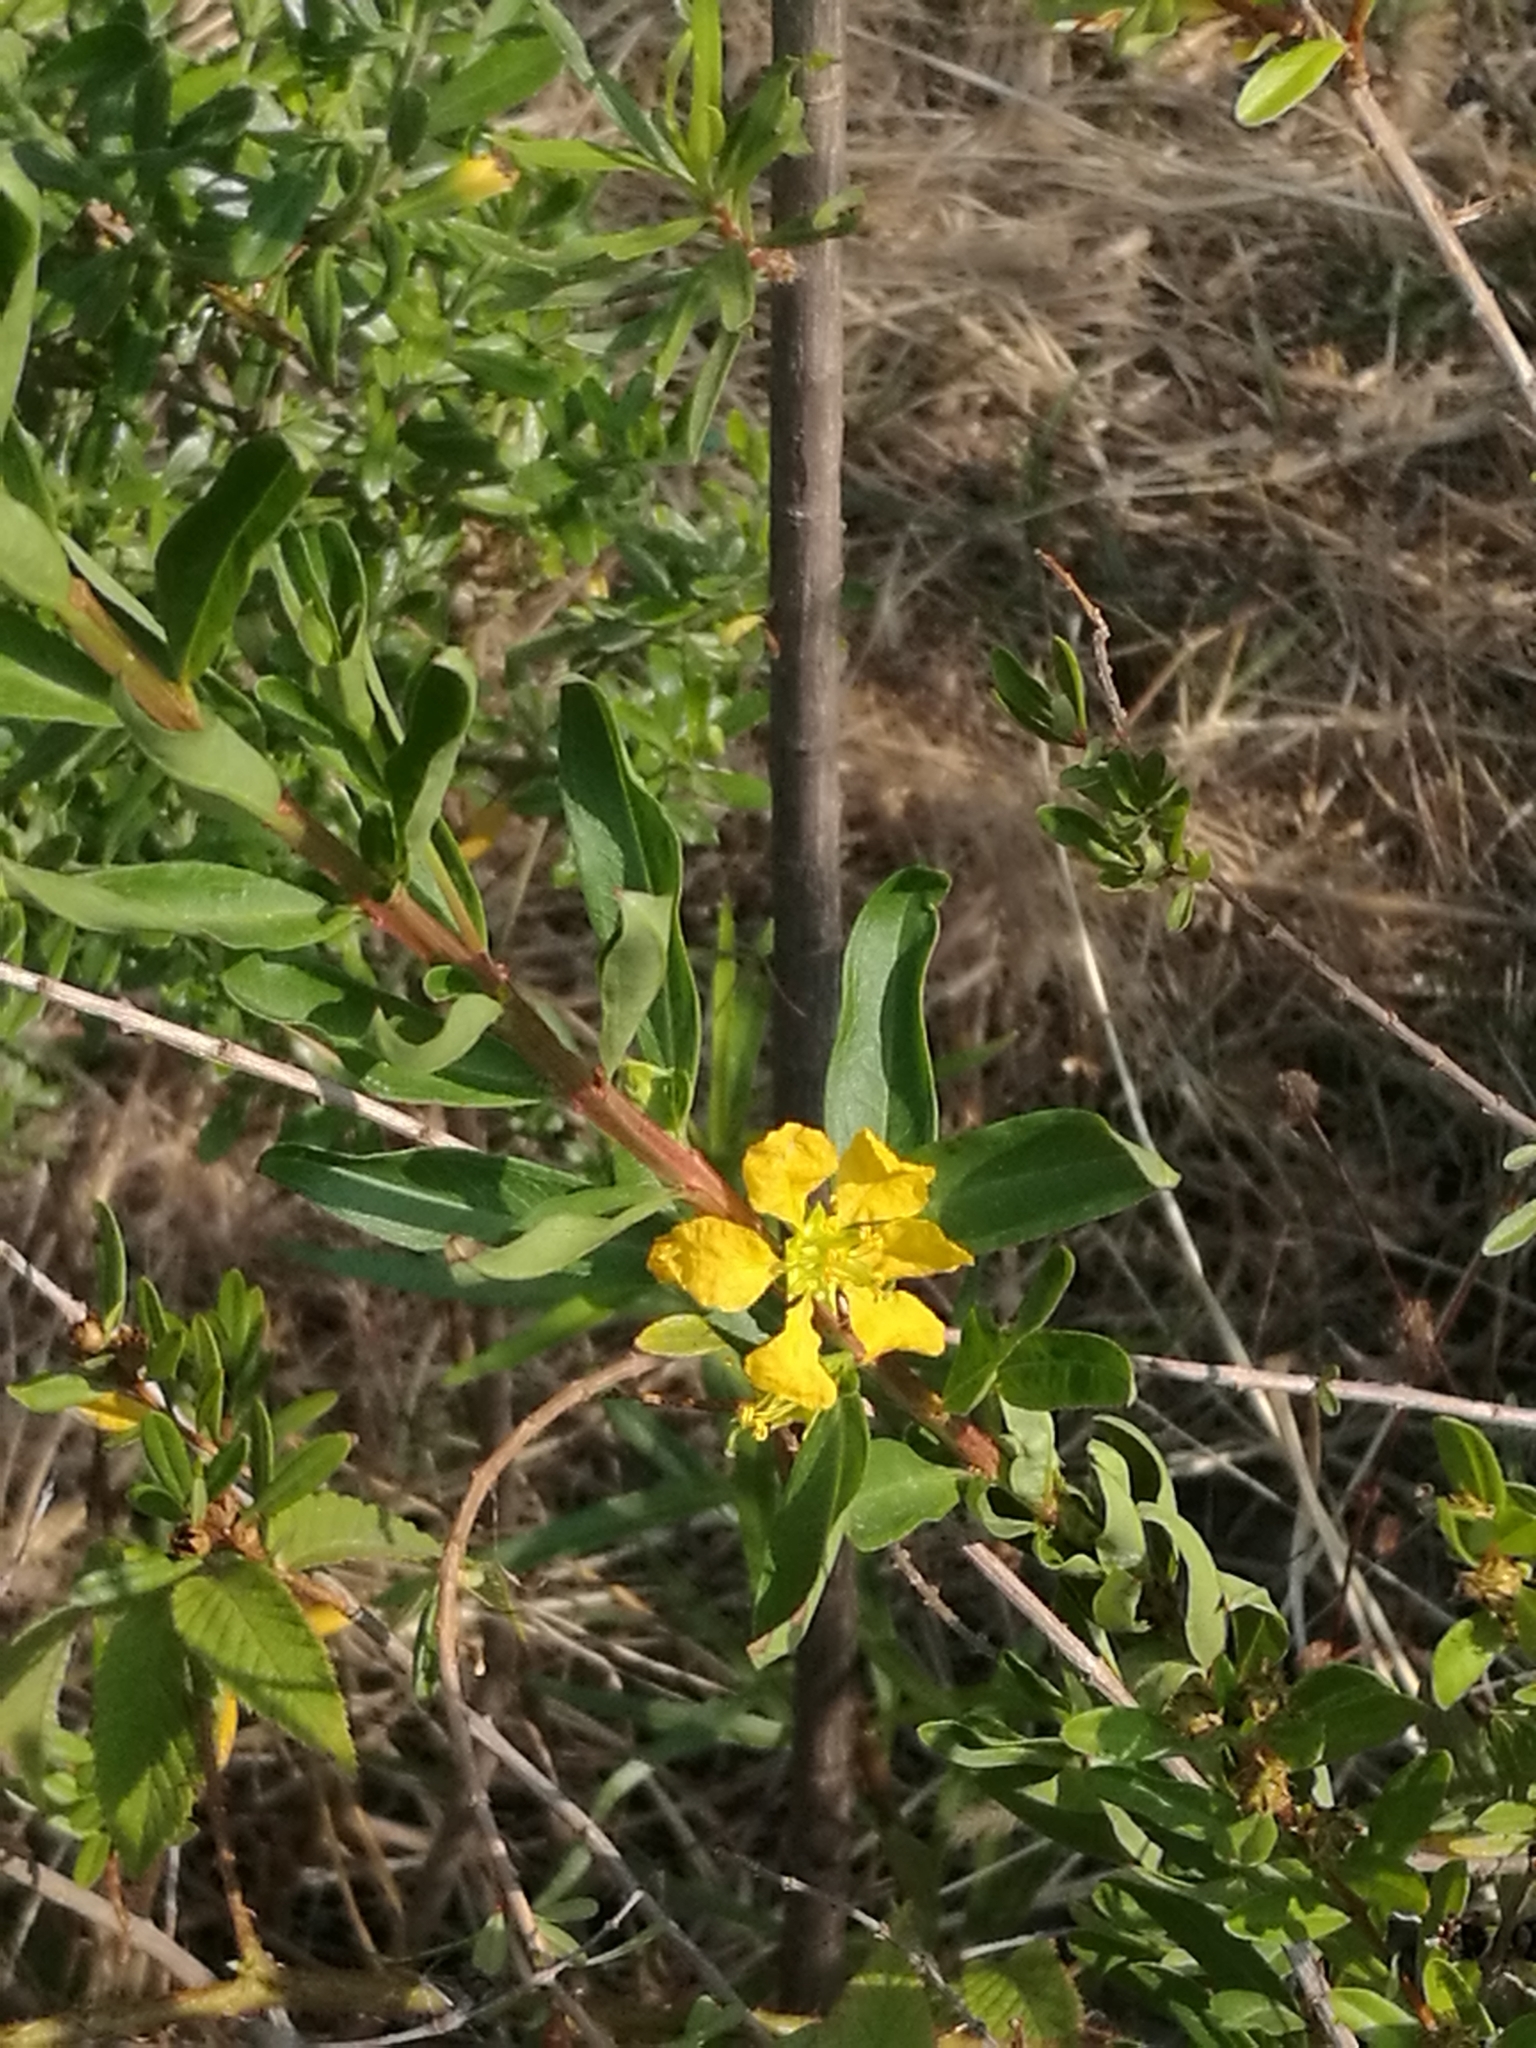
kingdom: Plantae
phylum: Tracheophyta
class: Magnoliopsida
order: Myrtales
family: Lythraceae
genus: Heimia
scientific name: Heimia salicifolia
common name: Willow-leaf heimia
